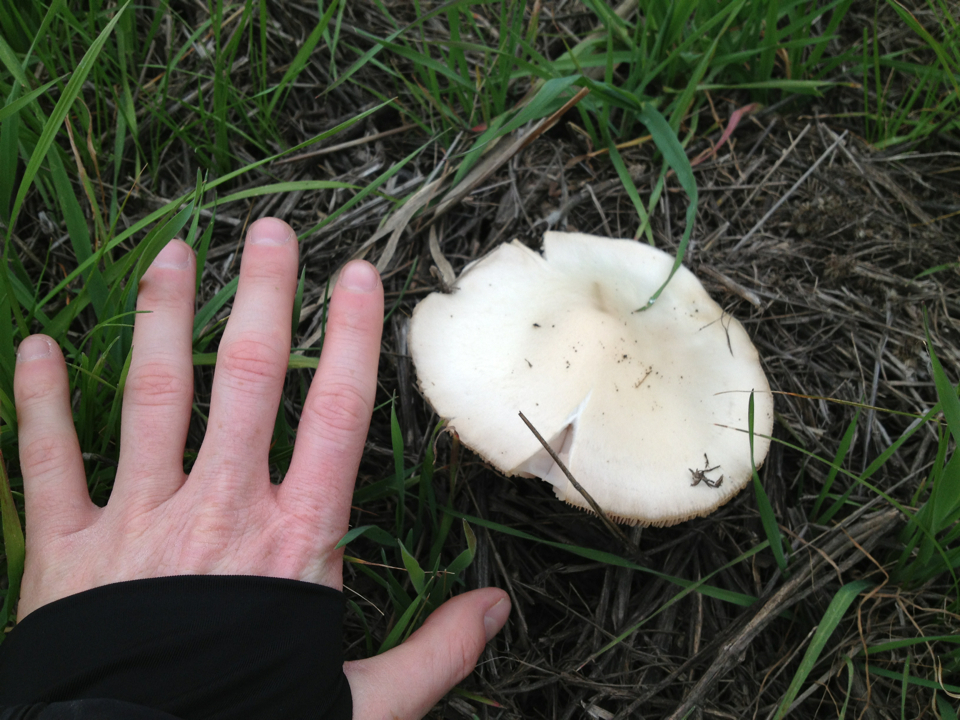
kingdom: Fungi
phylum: Basidiomycota
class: Agaricomycetes
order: Agaricales
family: Pluteaceae
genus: Volvopluteus
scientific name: Volvopluteus gloiocephalus
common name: Stubble rosegill
